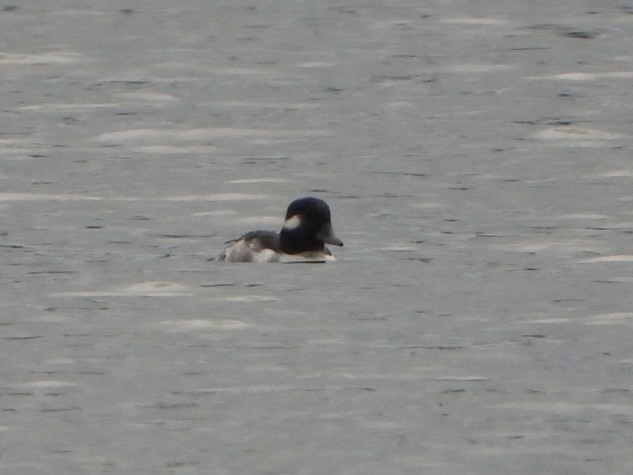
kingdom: Animalia
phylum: Chordata
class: Aves
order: Anseriformes
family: Anatidae
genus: Bucephala
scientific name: Bucephala albeola
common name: Bufflehead
